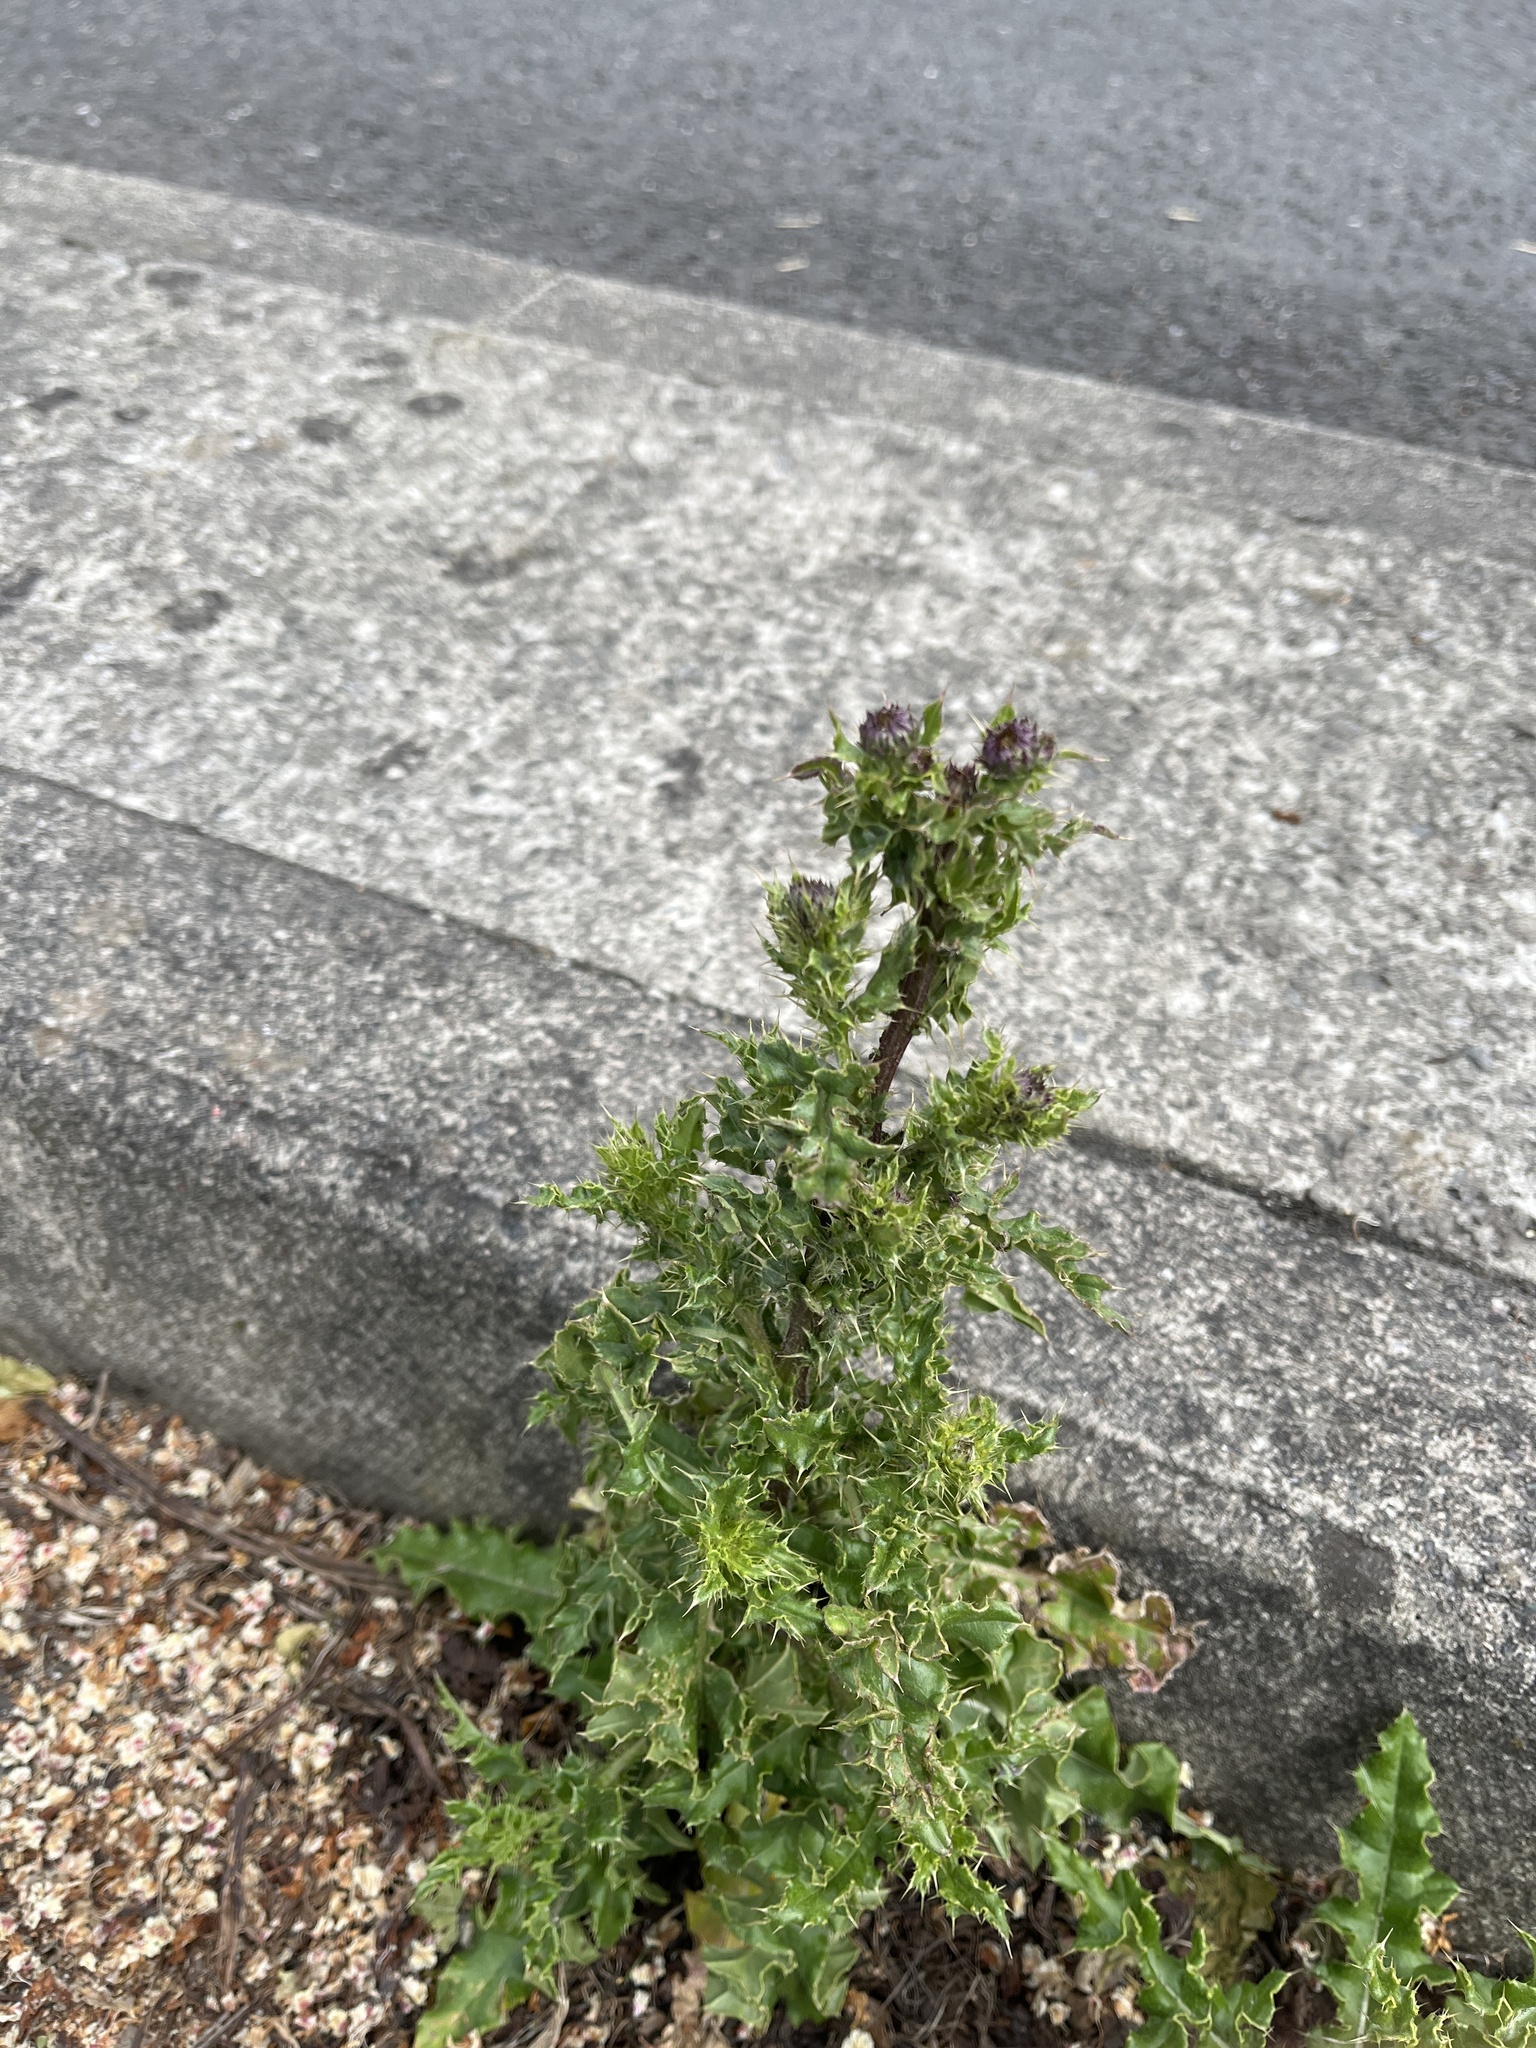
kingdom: Plantae
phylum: Tracheophyta
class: Magnoliopsida
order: Asterales
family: Asteraceae
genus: Cirsium
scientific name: Cirsium arvense
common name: Creeping thistle
